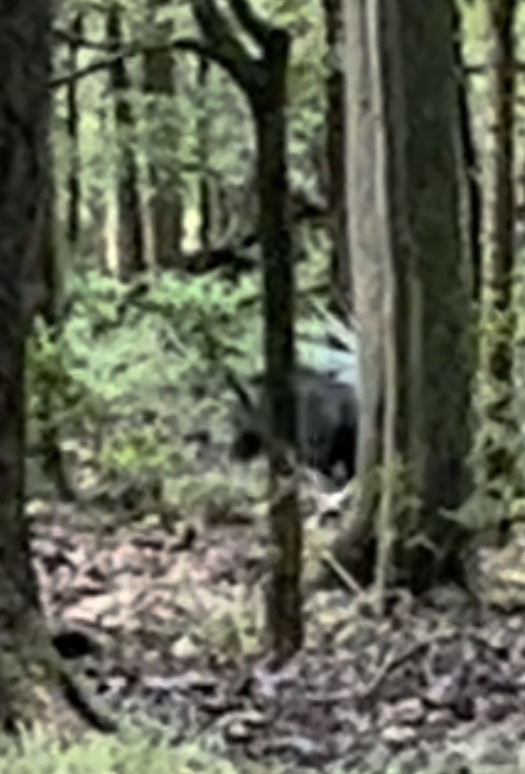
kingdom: Animalia
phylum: Chordata
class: Mammalia
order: Artiodactyla
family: Suidae
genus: Sus
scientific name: Sus scrofa
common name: Wild boar
